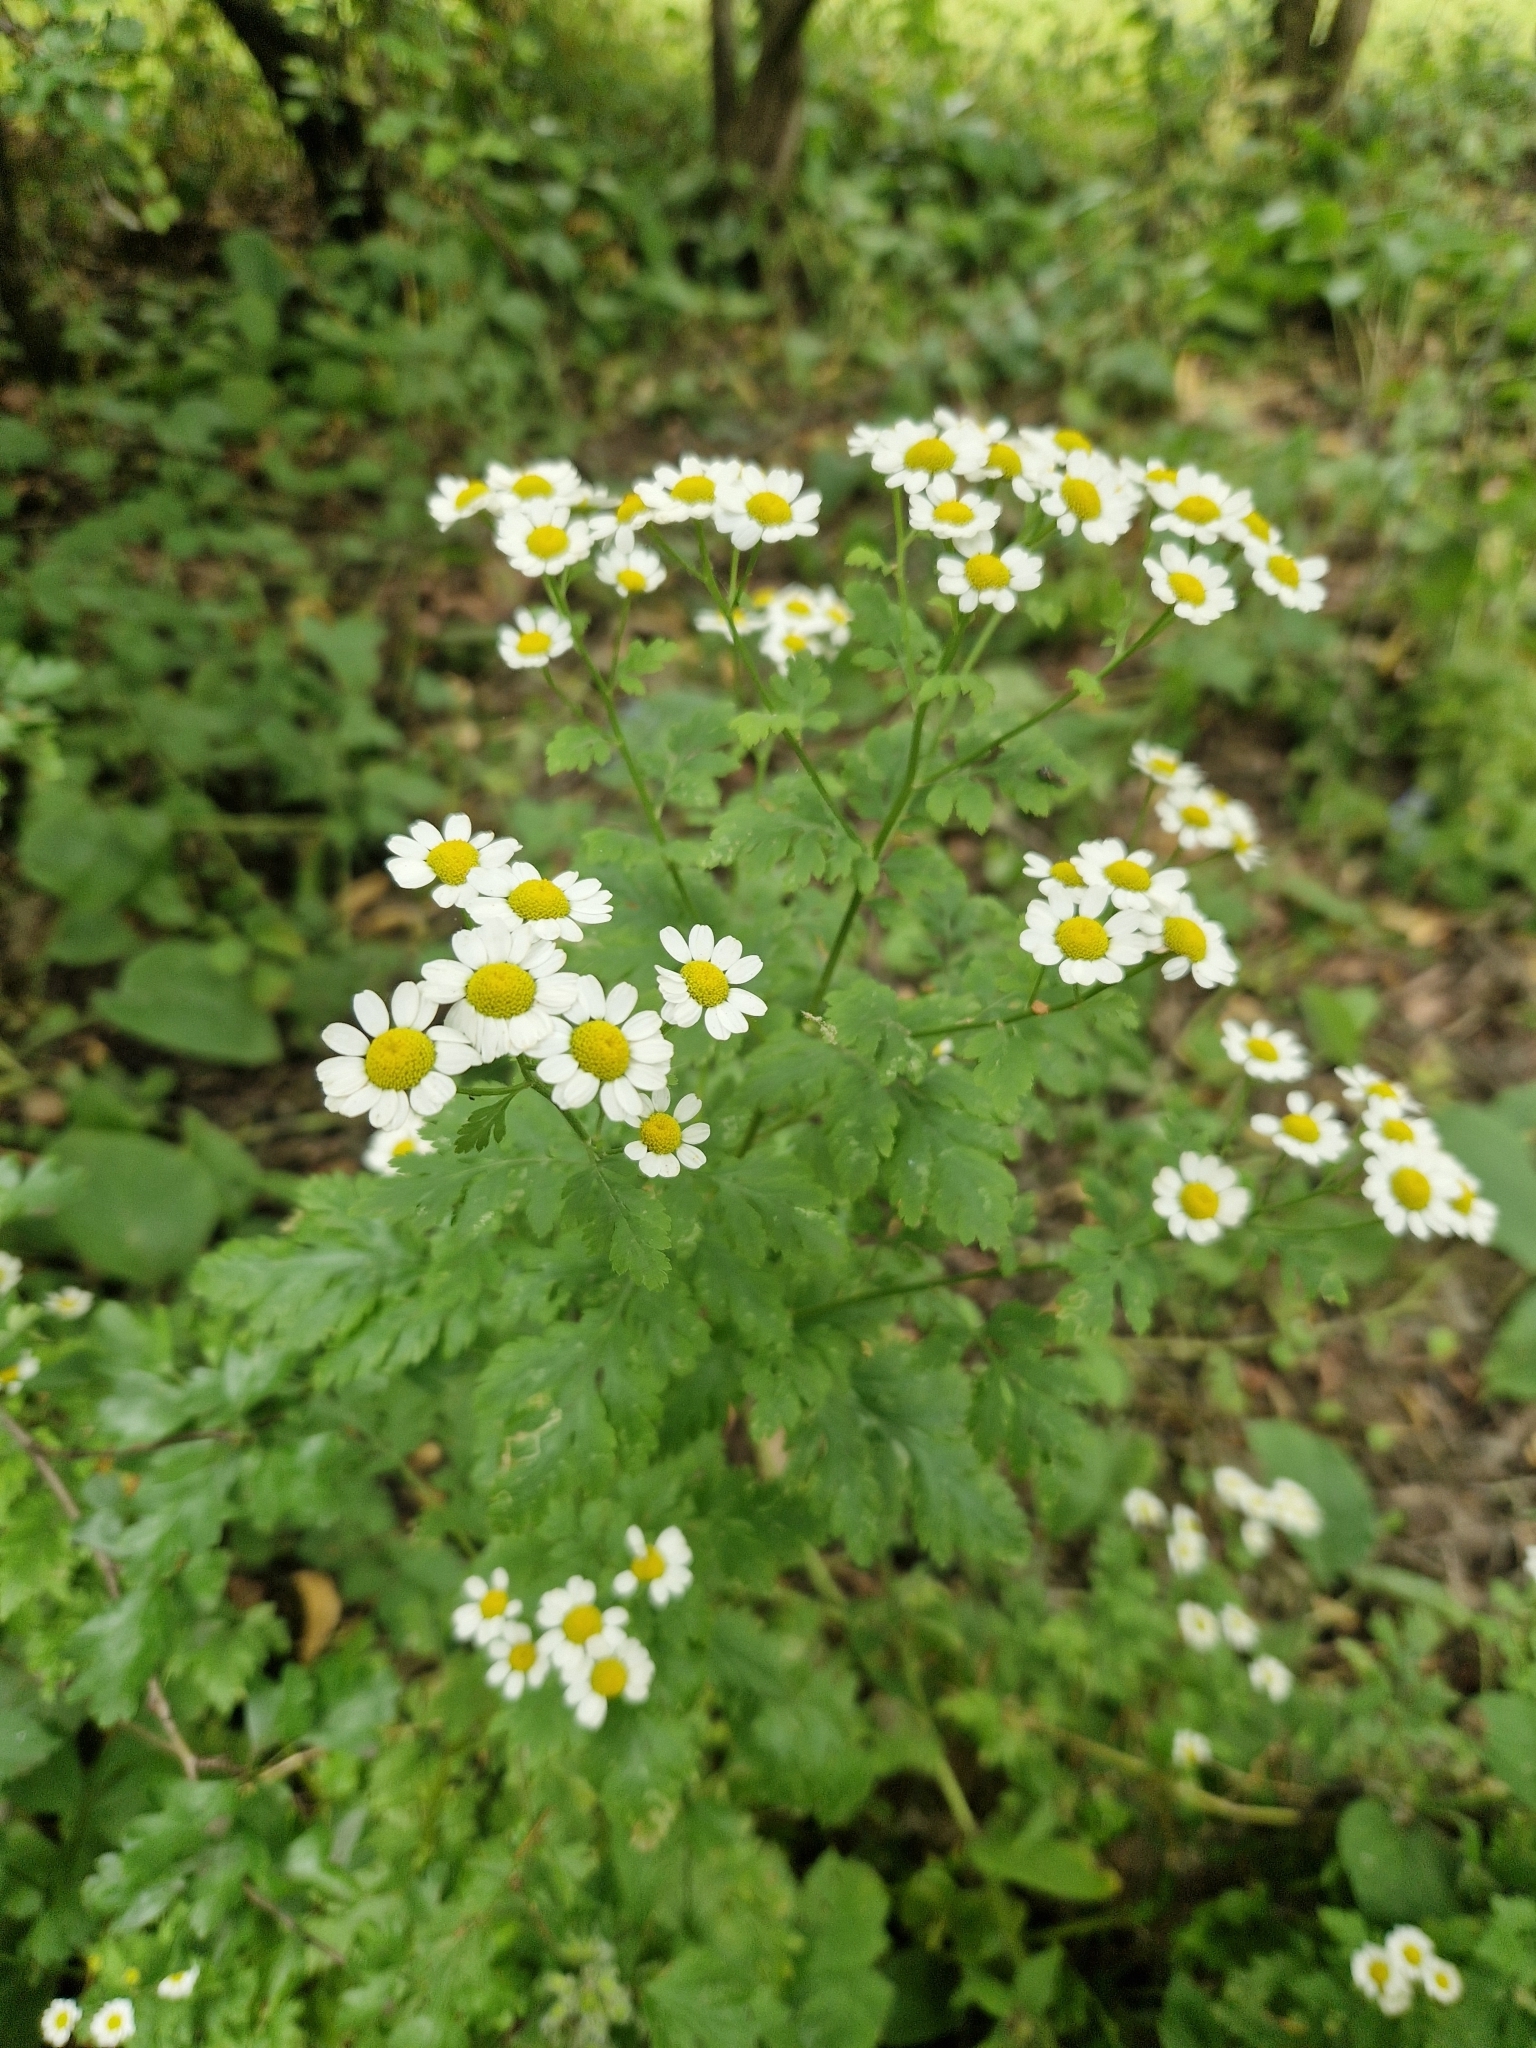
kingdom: Plantae
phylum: Tracheophyta
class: Magnoliopsida
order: Asterales
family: Asteraceae
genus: Tanacetum
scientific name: Tanacetum parthenium
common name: Feverfew
